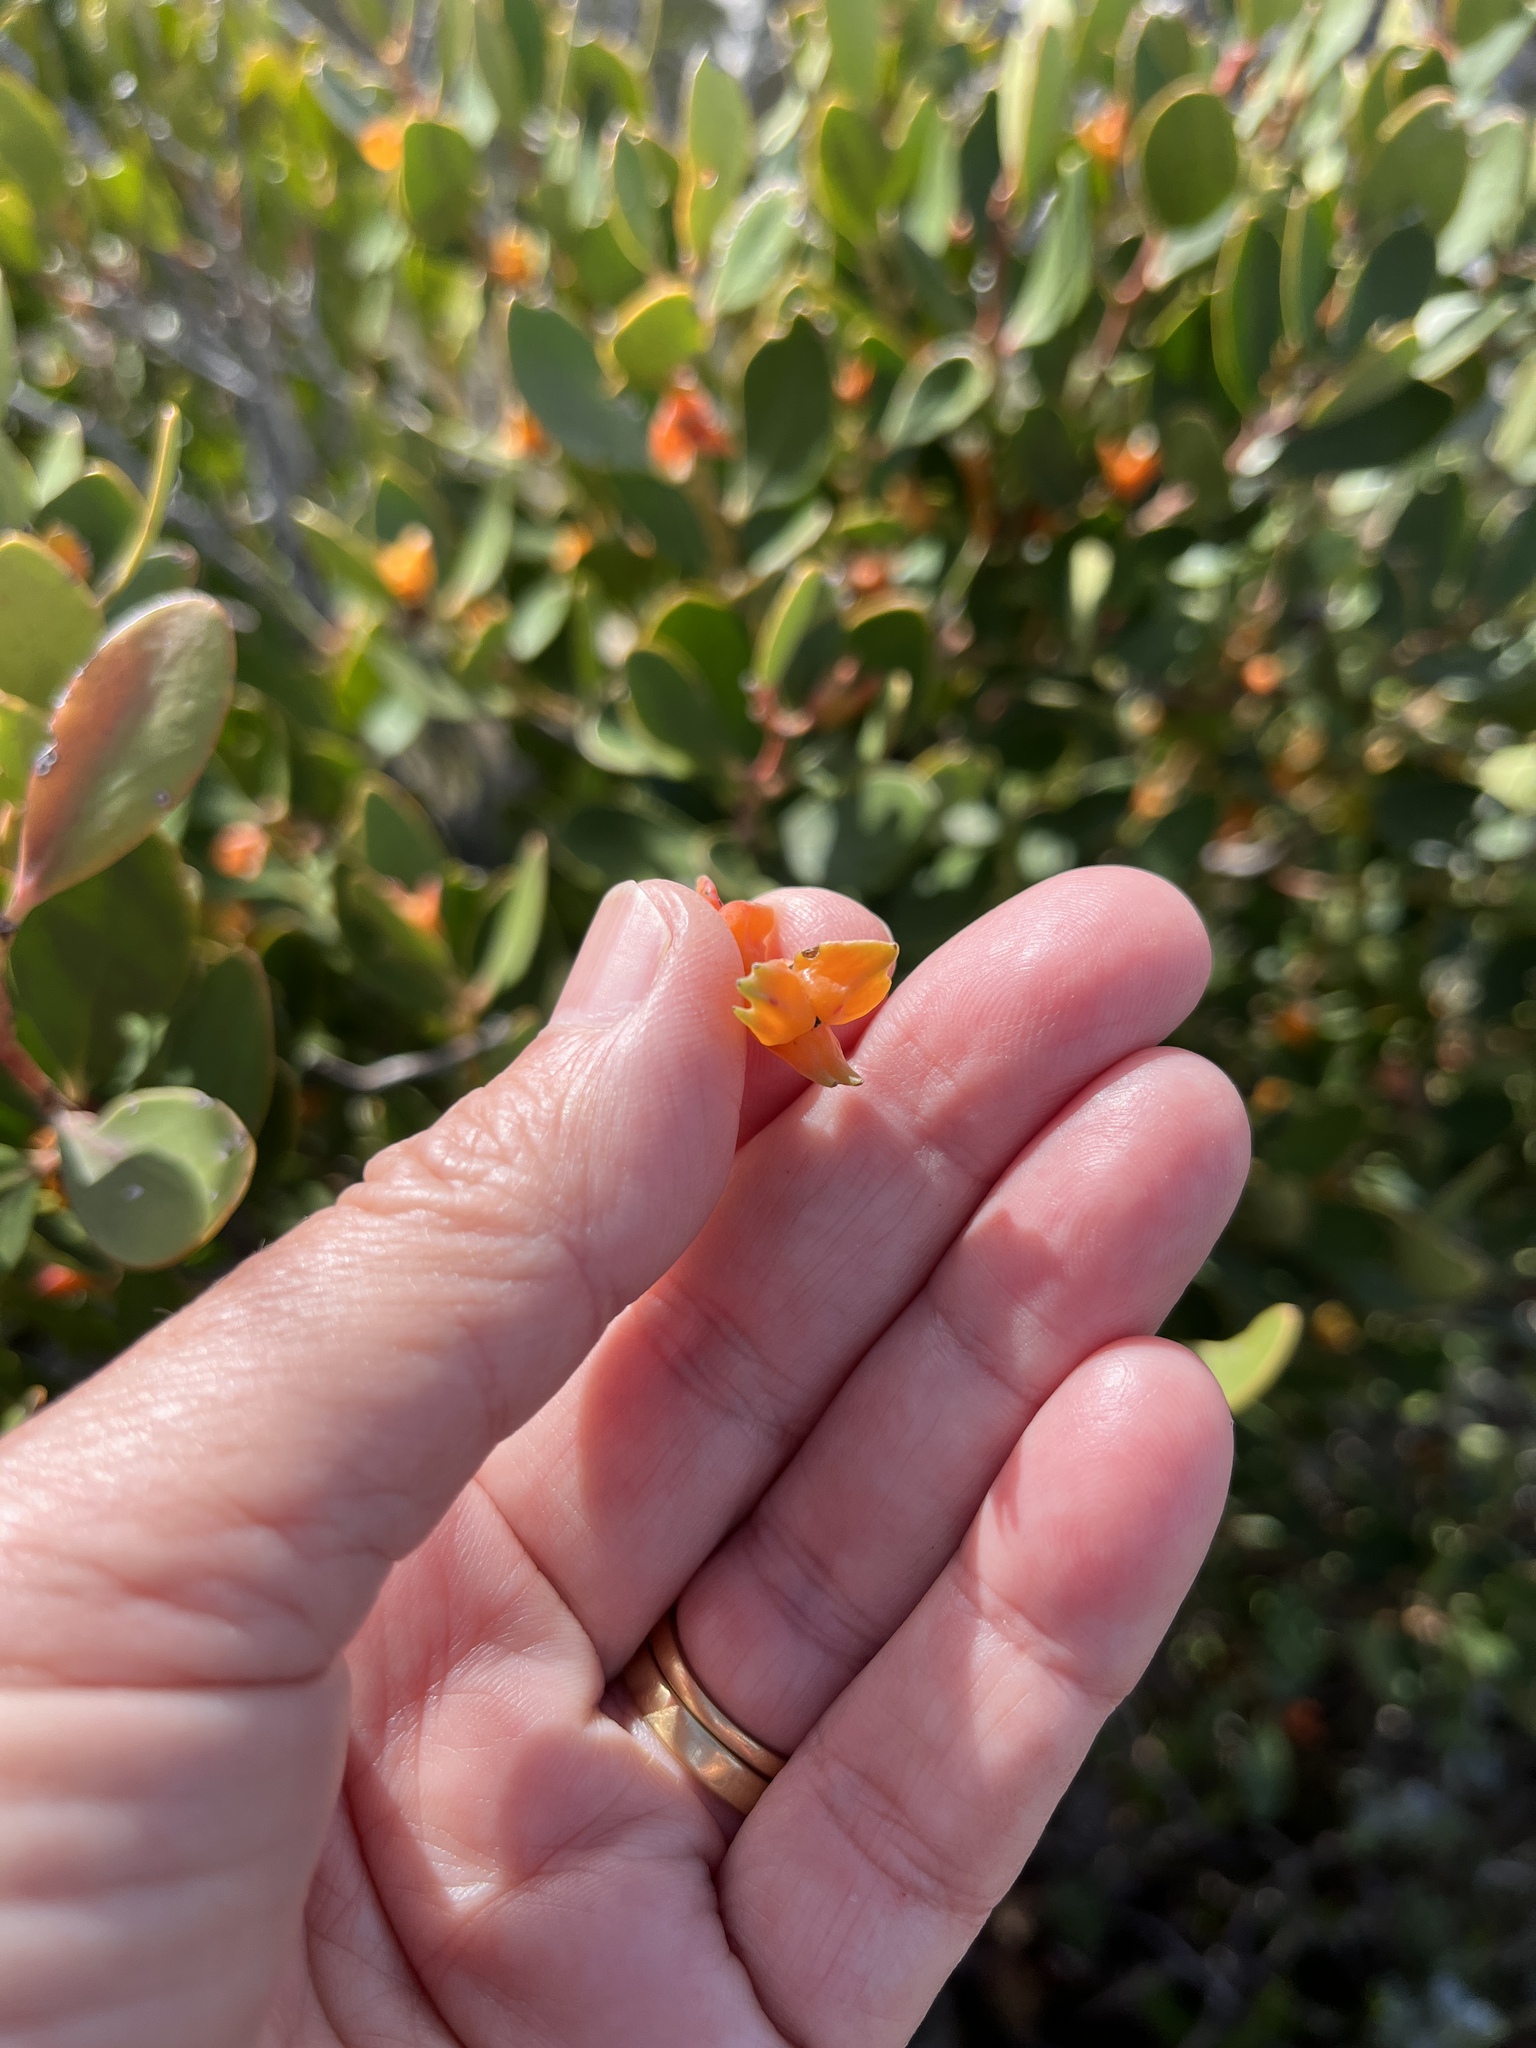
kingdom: Plantae
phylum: Tracheophyta
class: Magnoliopsida
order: Celastrales
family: Celastraceae
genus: Pterocelastrus
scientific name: Pterocelastrus tricuspidatus
